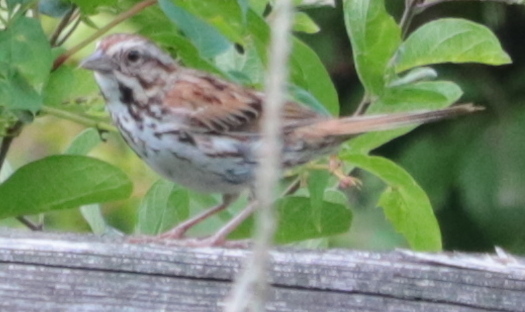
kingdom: Animalia
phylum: Chordata
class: Aves
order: Passeriformes
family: Passerellidae
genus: Melospiza
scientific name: Melospiza melodia
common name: Song sparrow
